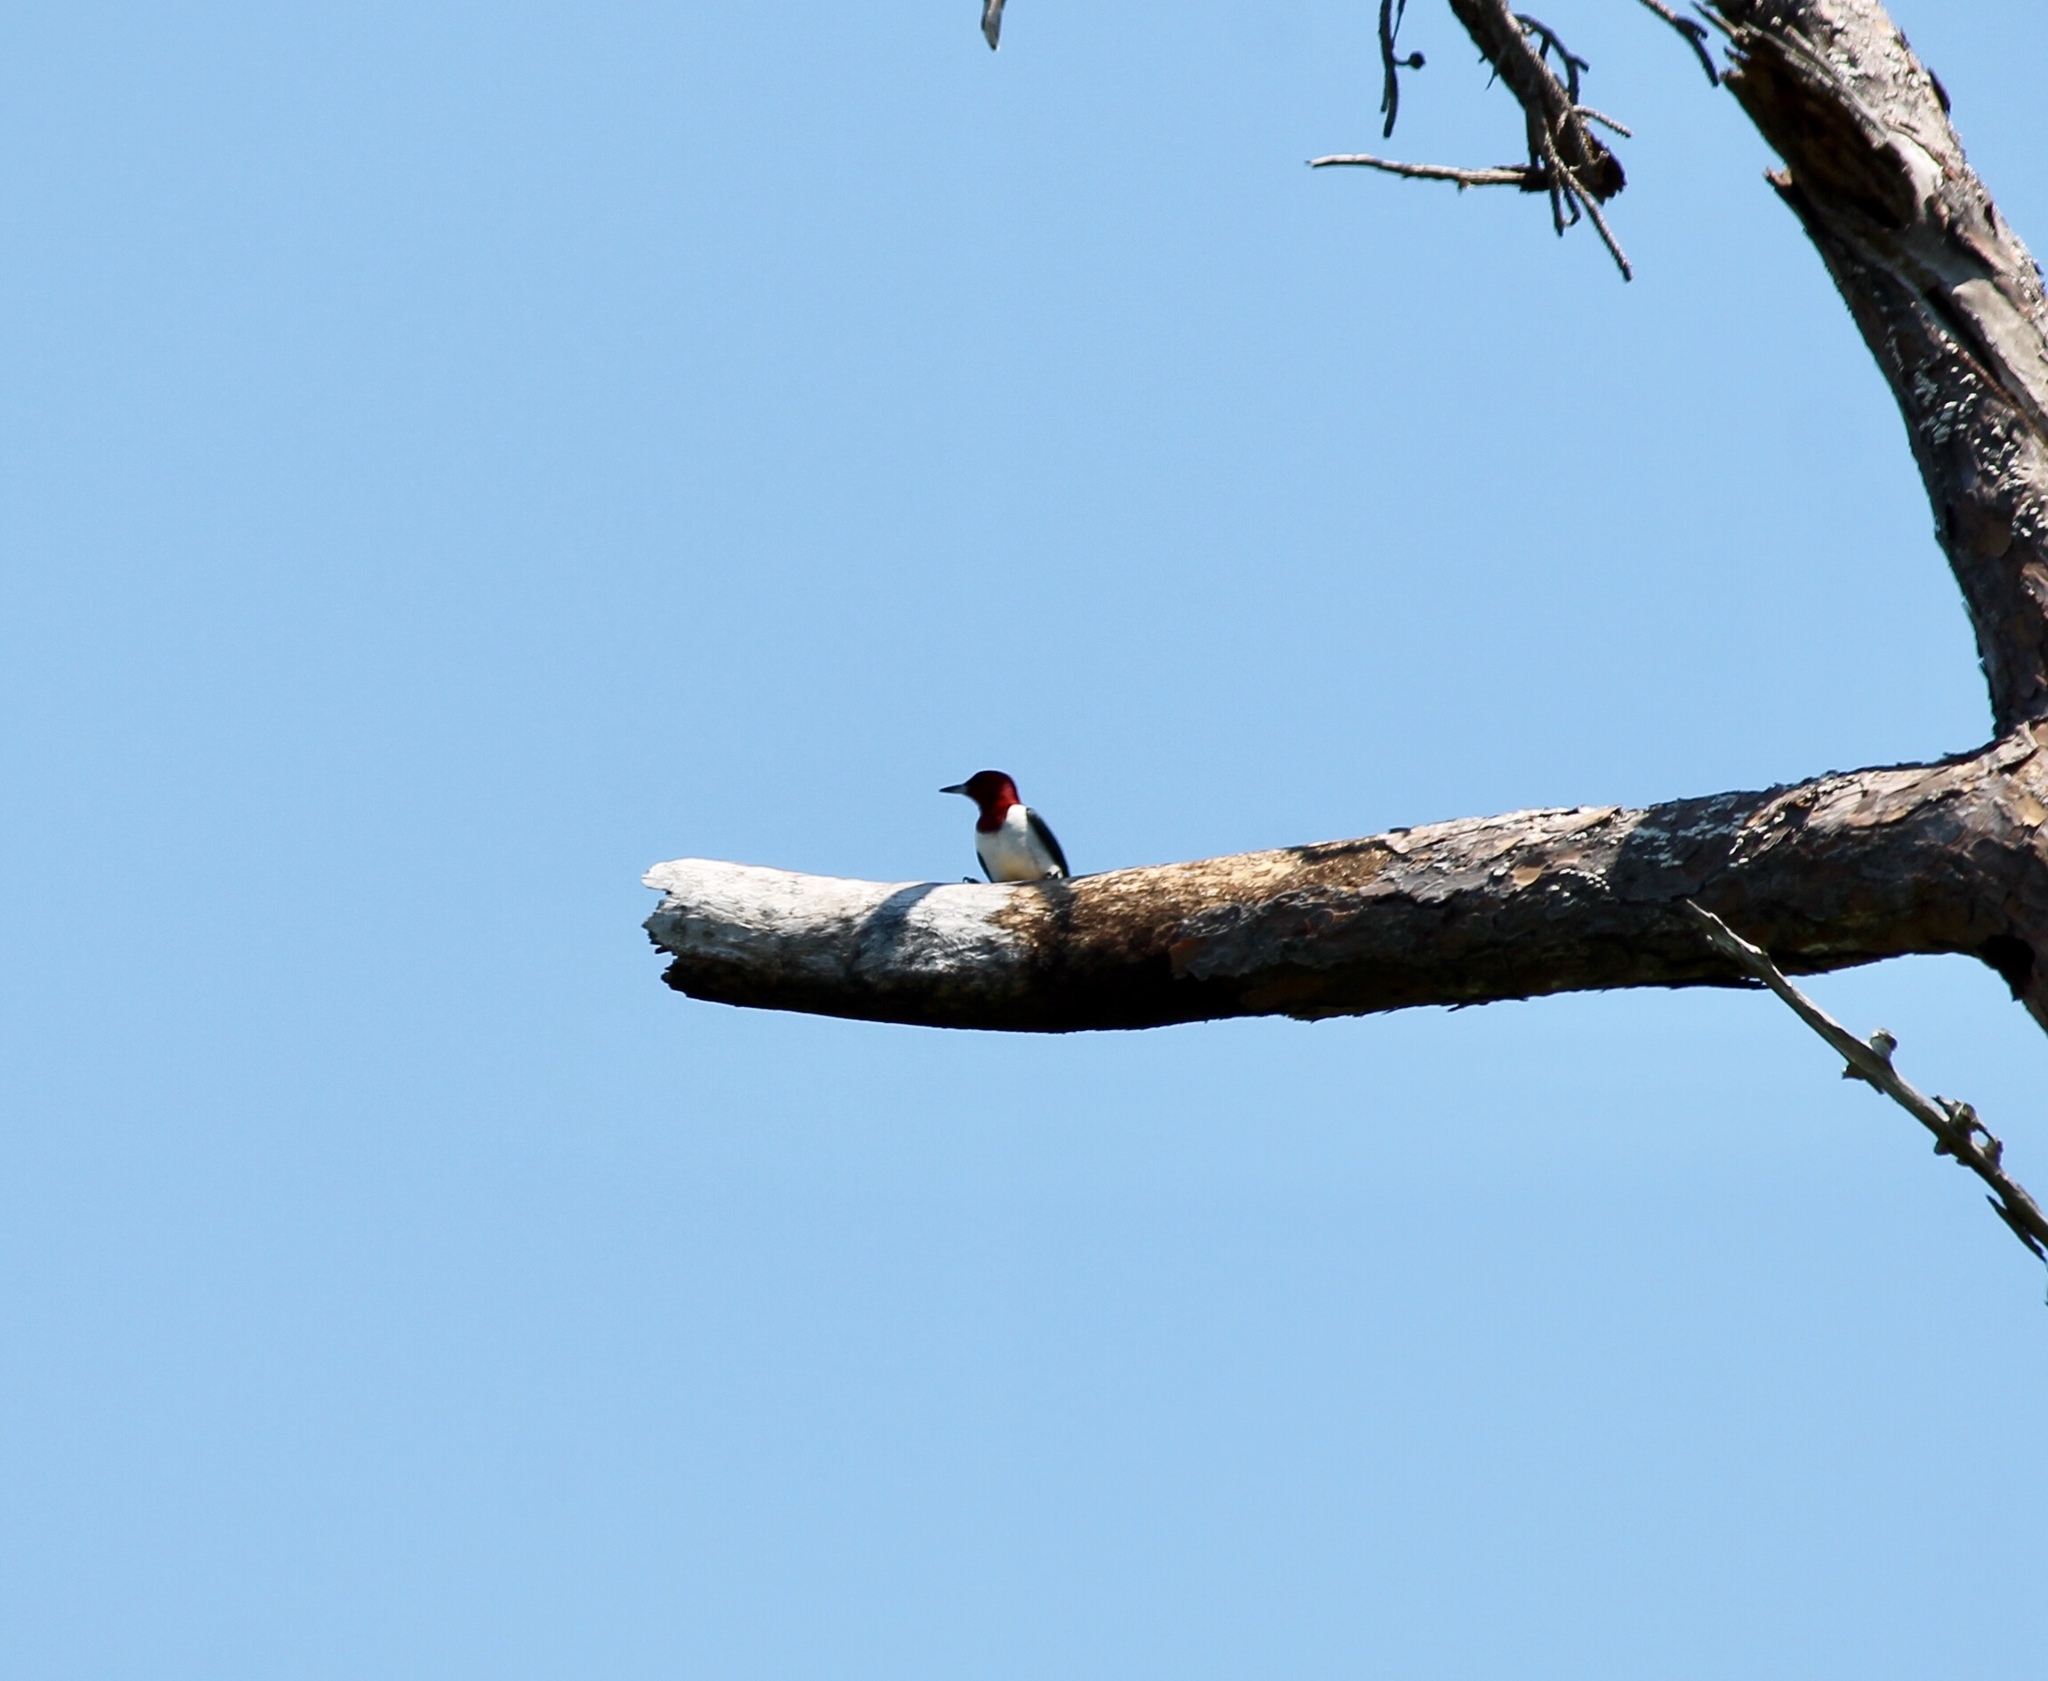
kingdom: Animalia
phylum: Chordata
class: Aves
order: Piciformes
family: Picidae
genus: Melanerpes
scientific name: Melanerpes erythrocephalus
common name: Red-headed woodpecker
